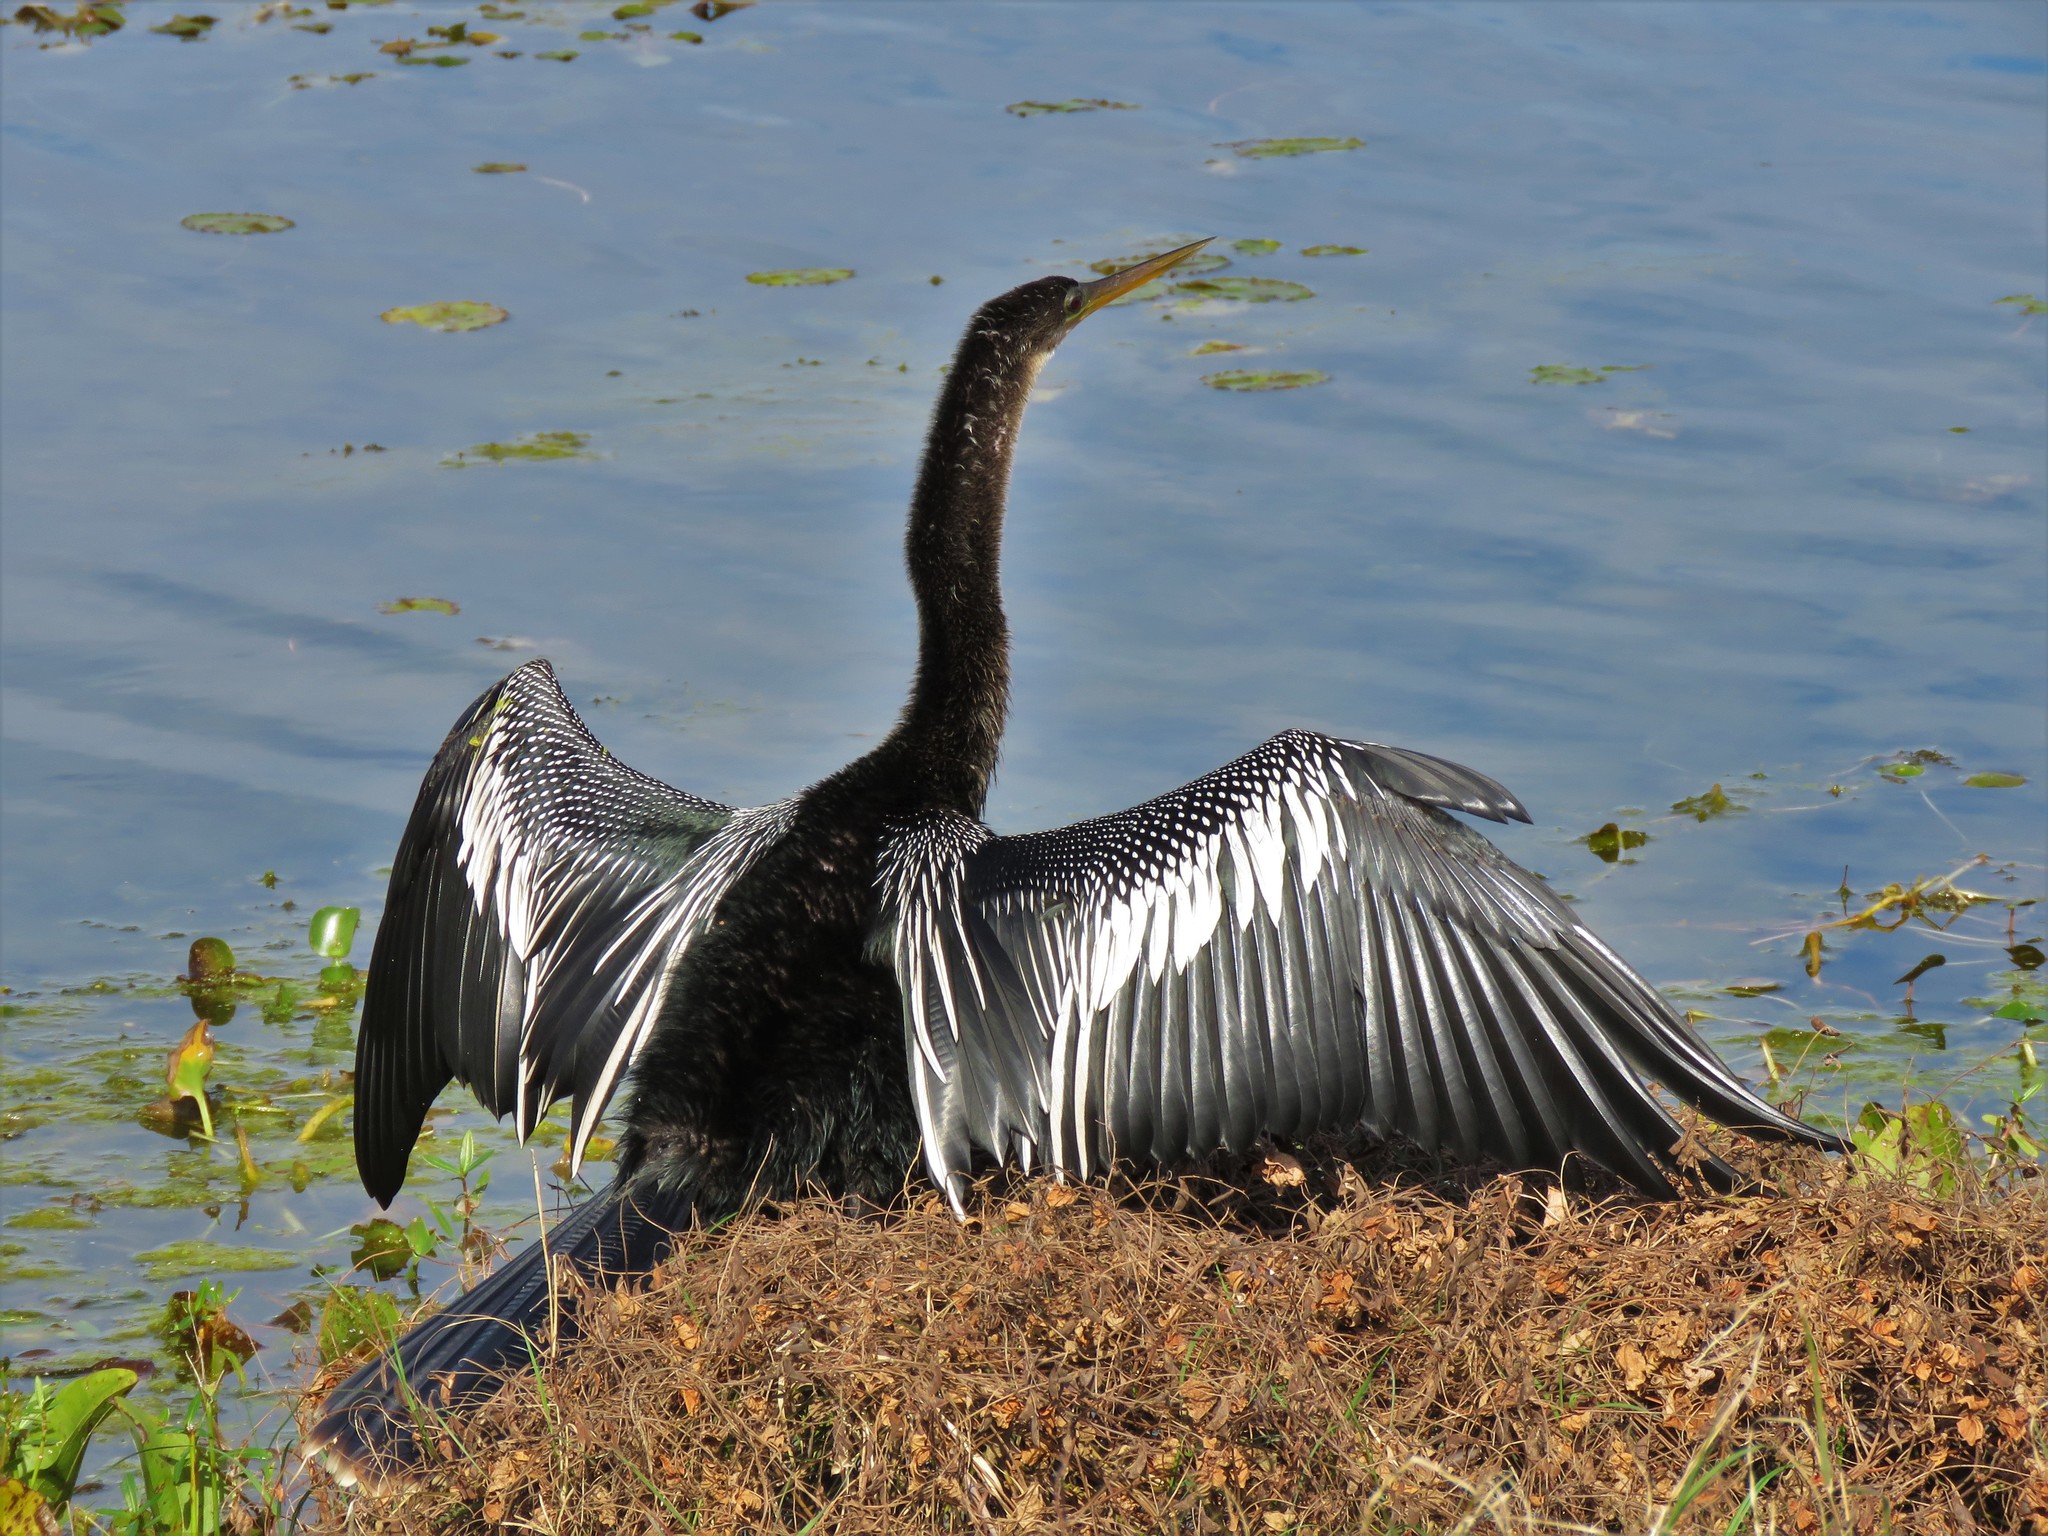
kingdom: Animalia
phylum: Chordata
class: Aves
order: Suliformes
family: Anhingidae
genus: Anhinga
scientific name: Anhinga anhinga
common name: Anhinga
